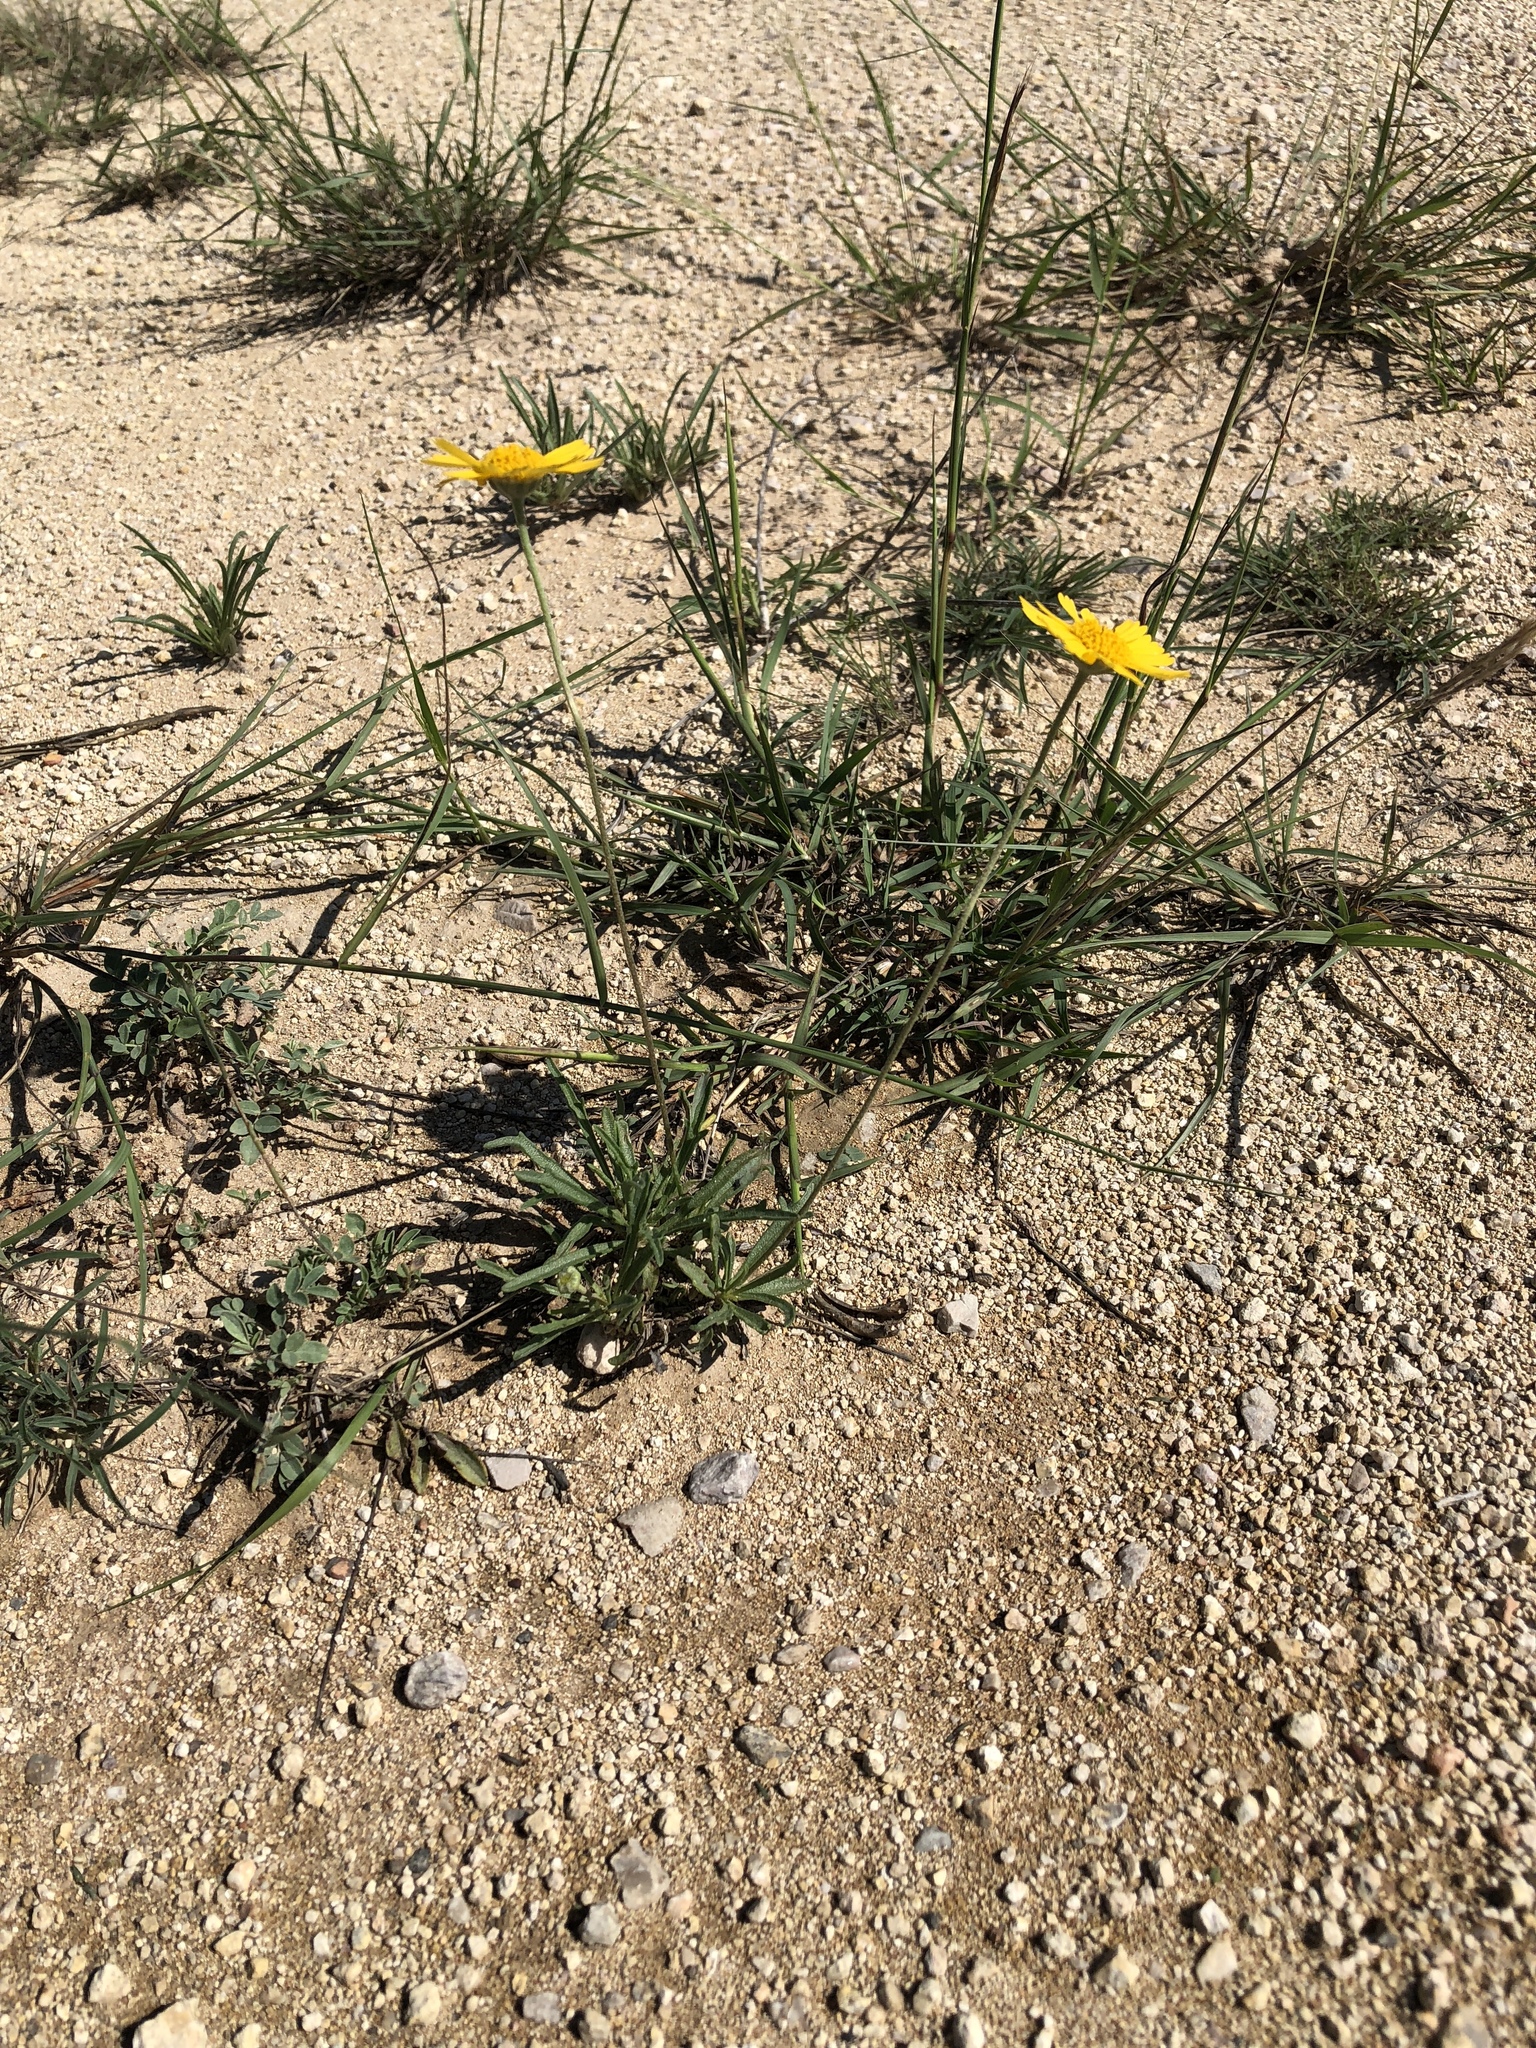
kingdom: Plantae
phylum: Tracheophyta
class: Magnoliopsida
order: Asterales
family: Asteraceae
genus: Tetraneuris
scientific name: Tetraneuris scaposa
